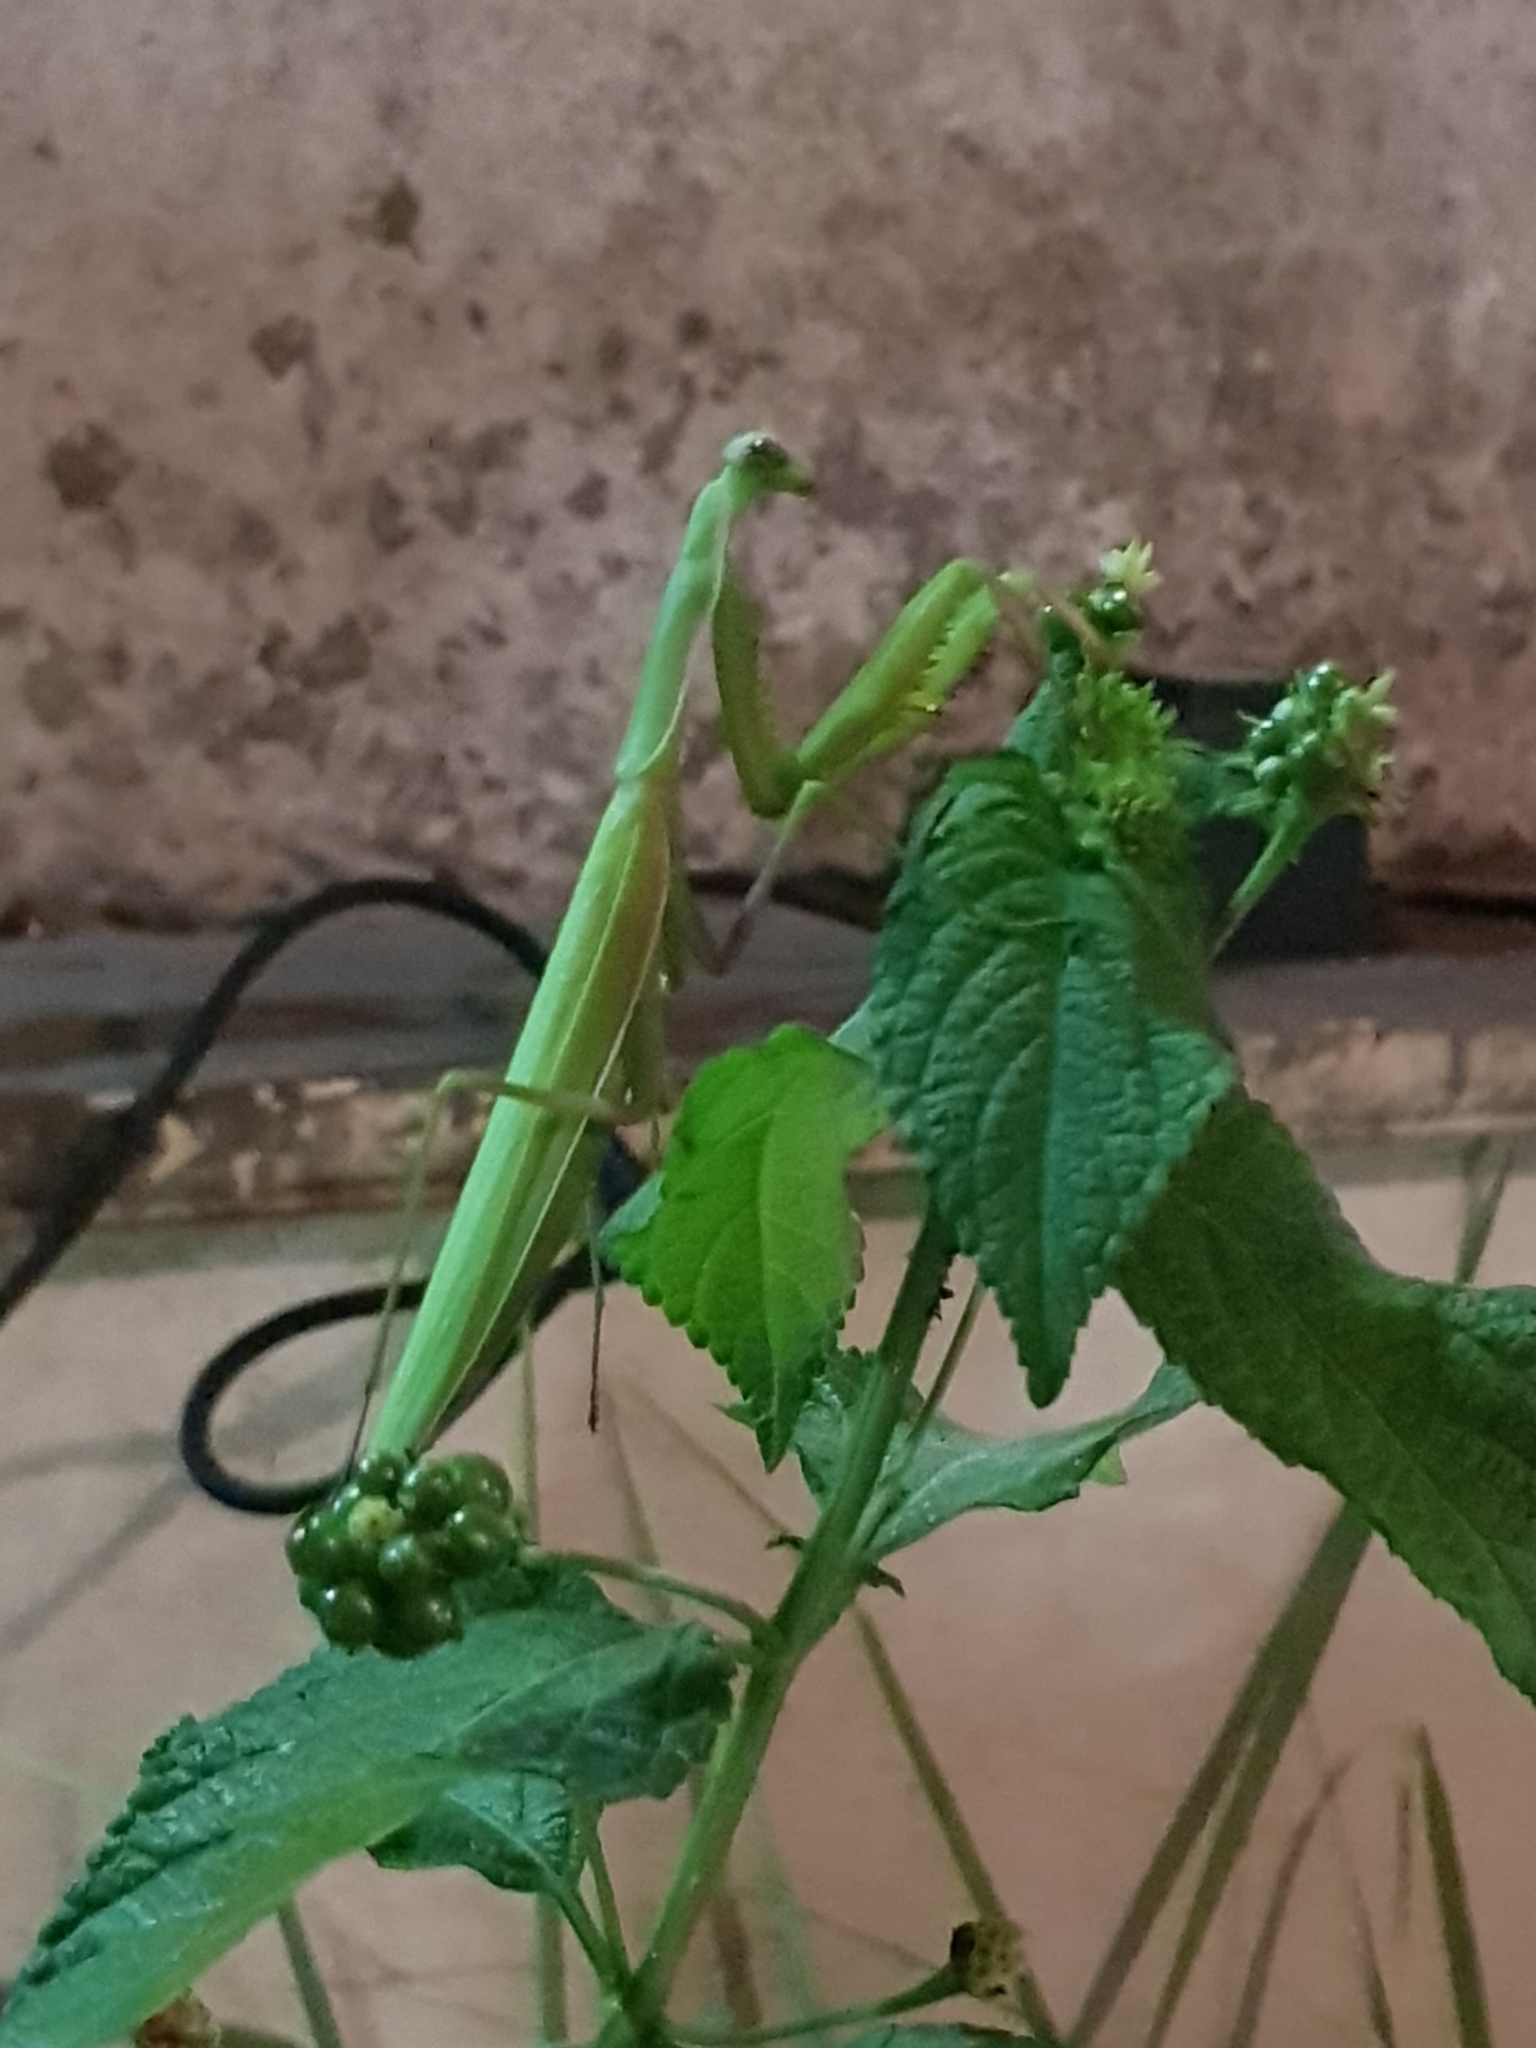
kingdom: Animalia
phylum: Arthropoda
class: Insecta
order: Mantodea
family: Mantidae
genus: Mantis
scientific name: Mantis religiosa
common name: Praying mantis
